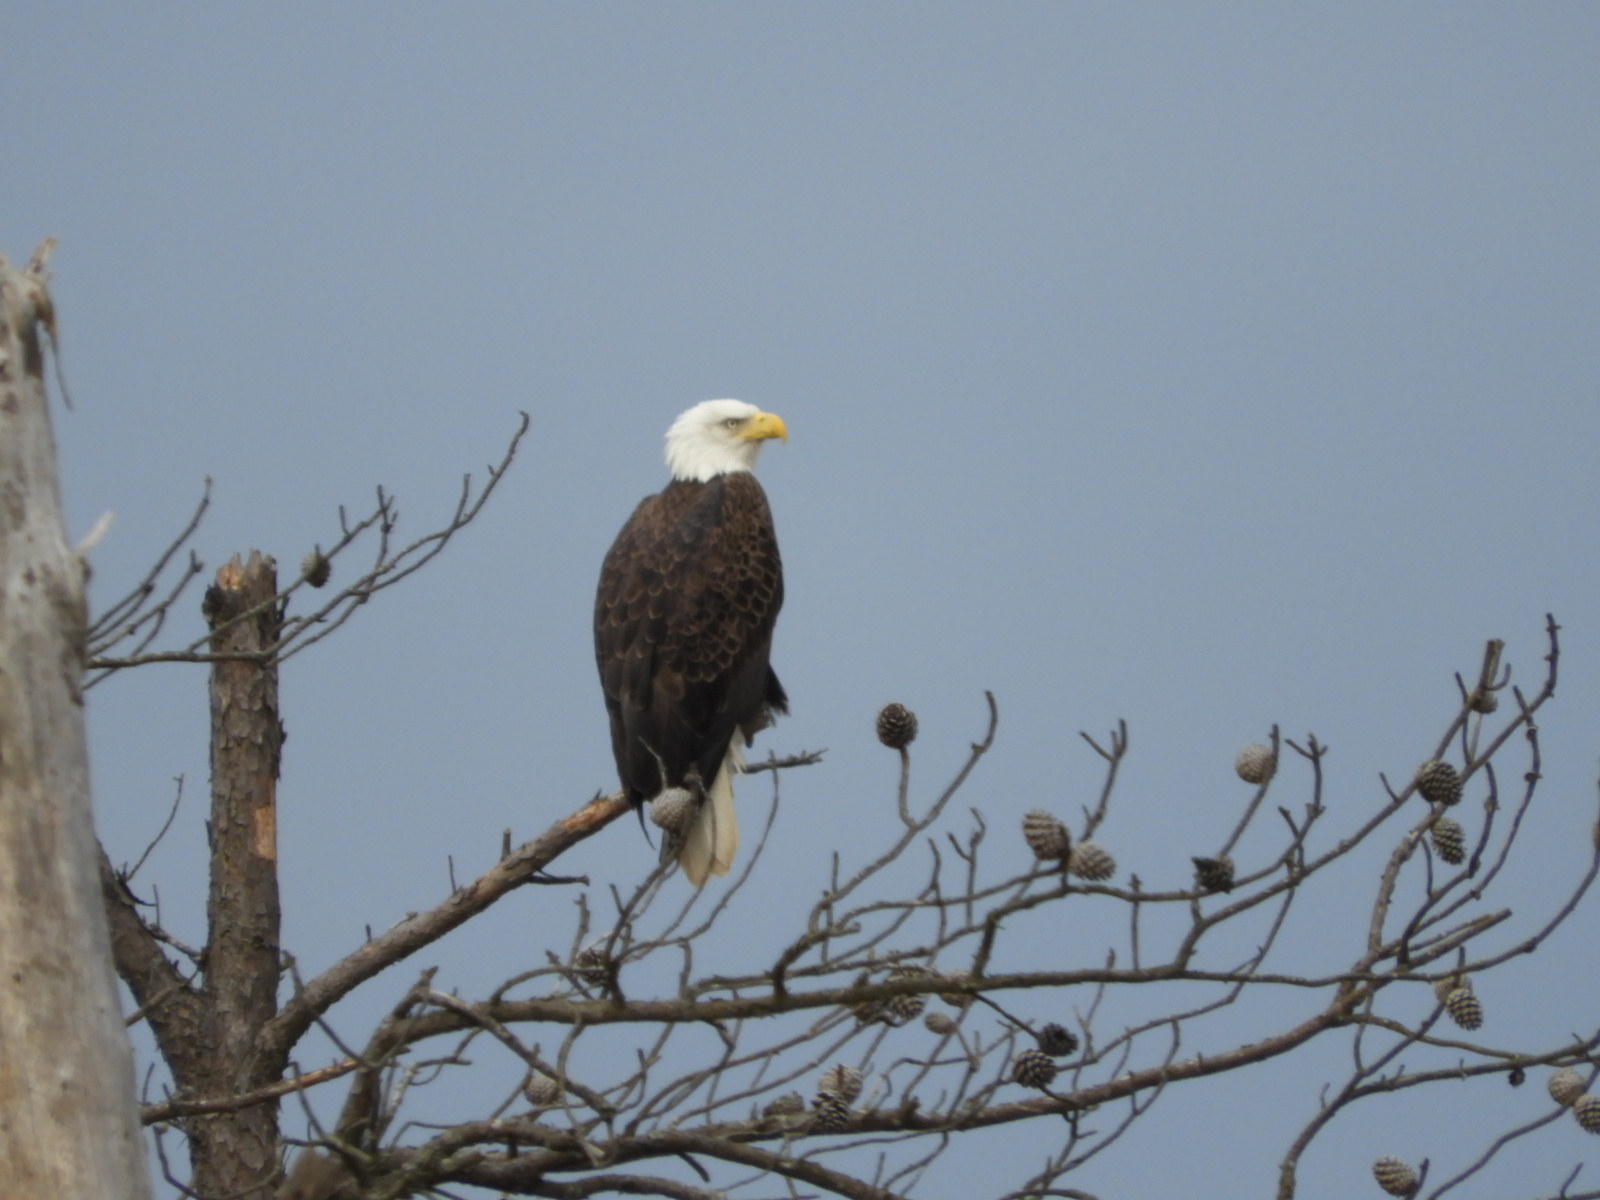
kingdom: Animalia
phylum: Chordata
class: Aves
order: Accipitriformes
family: Accipitridae
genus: Haliaeetus
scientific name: Haliaeetus leucocephalus
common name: Bald eagle
